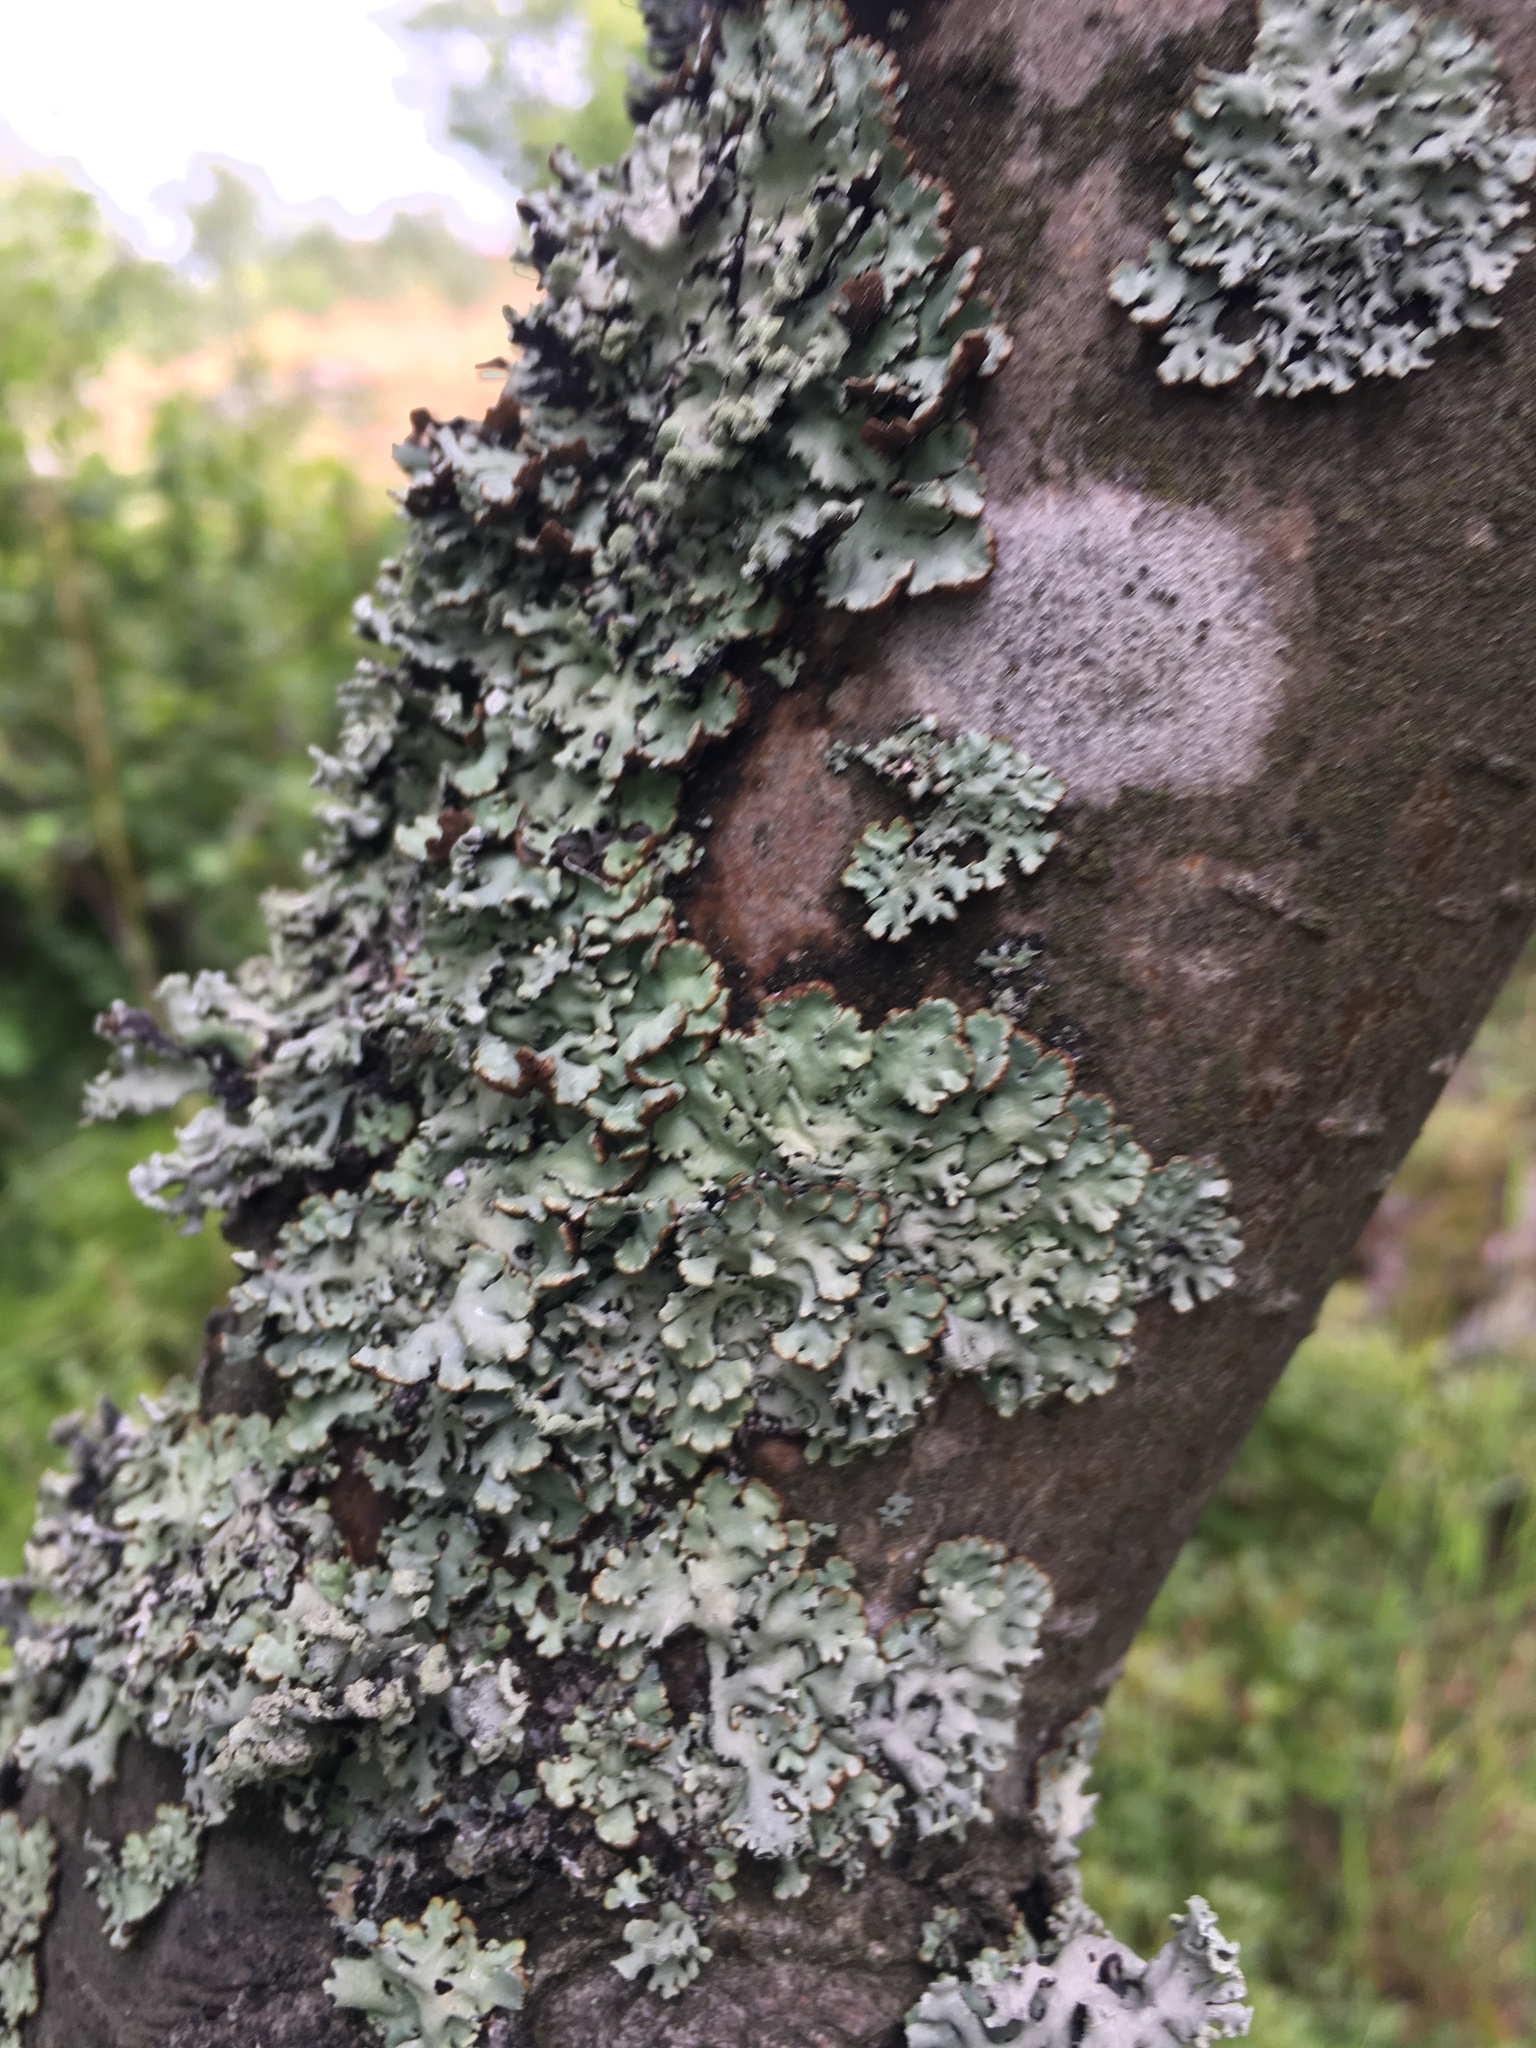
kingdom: Fungi
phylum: Ascomycota
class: Lecanoromycetes
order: Lecanorales
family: Parmeliaceae
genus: Hypogymnia
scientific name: Hypogymnia physodes
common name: Dark crottle
